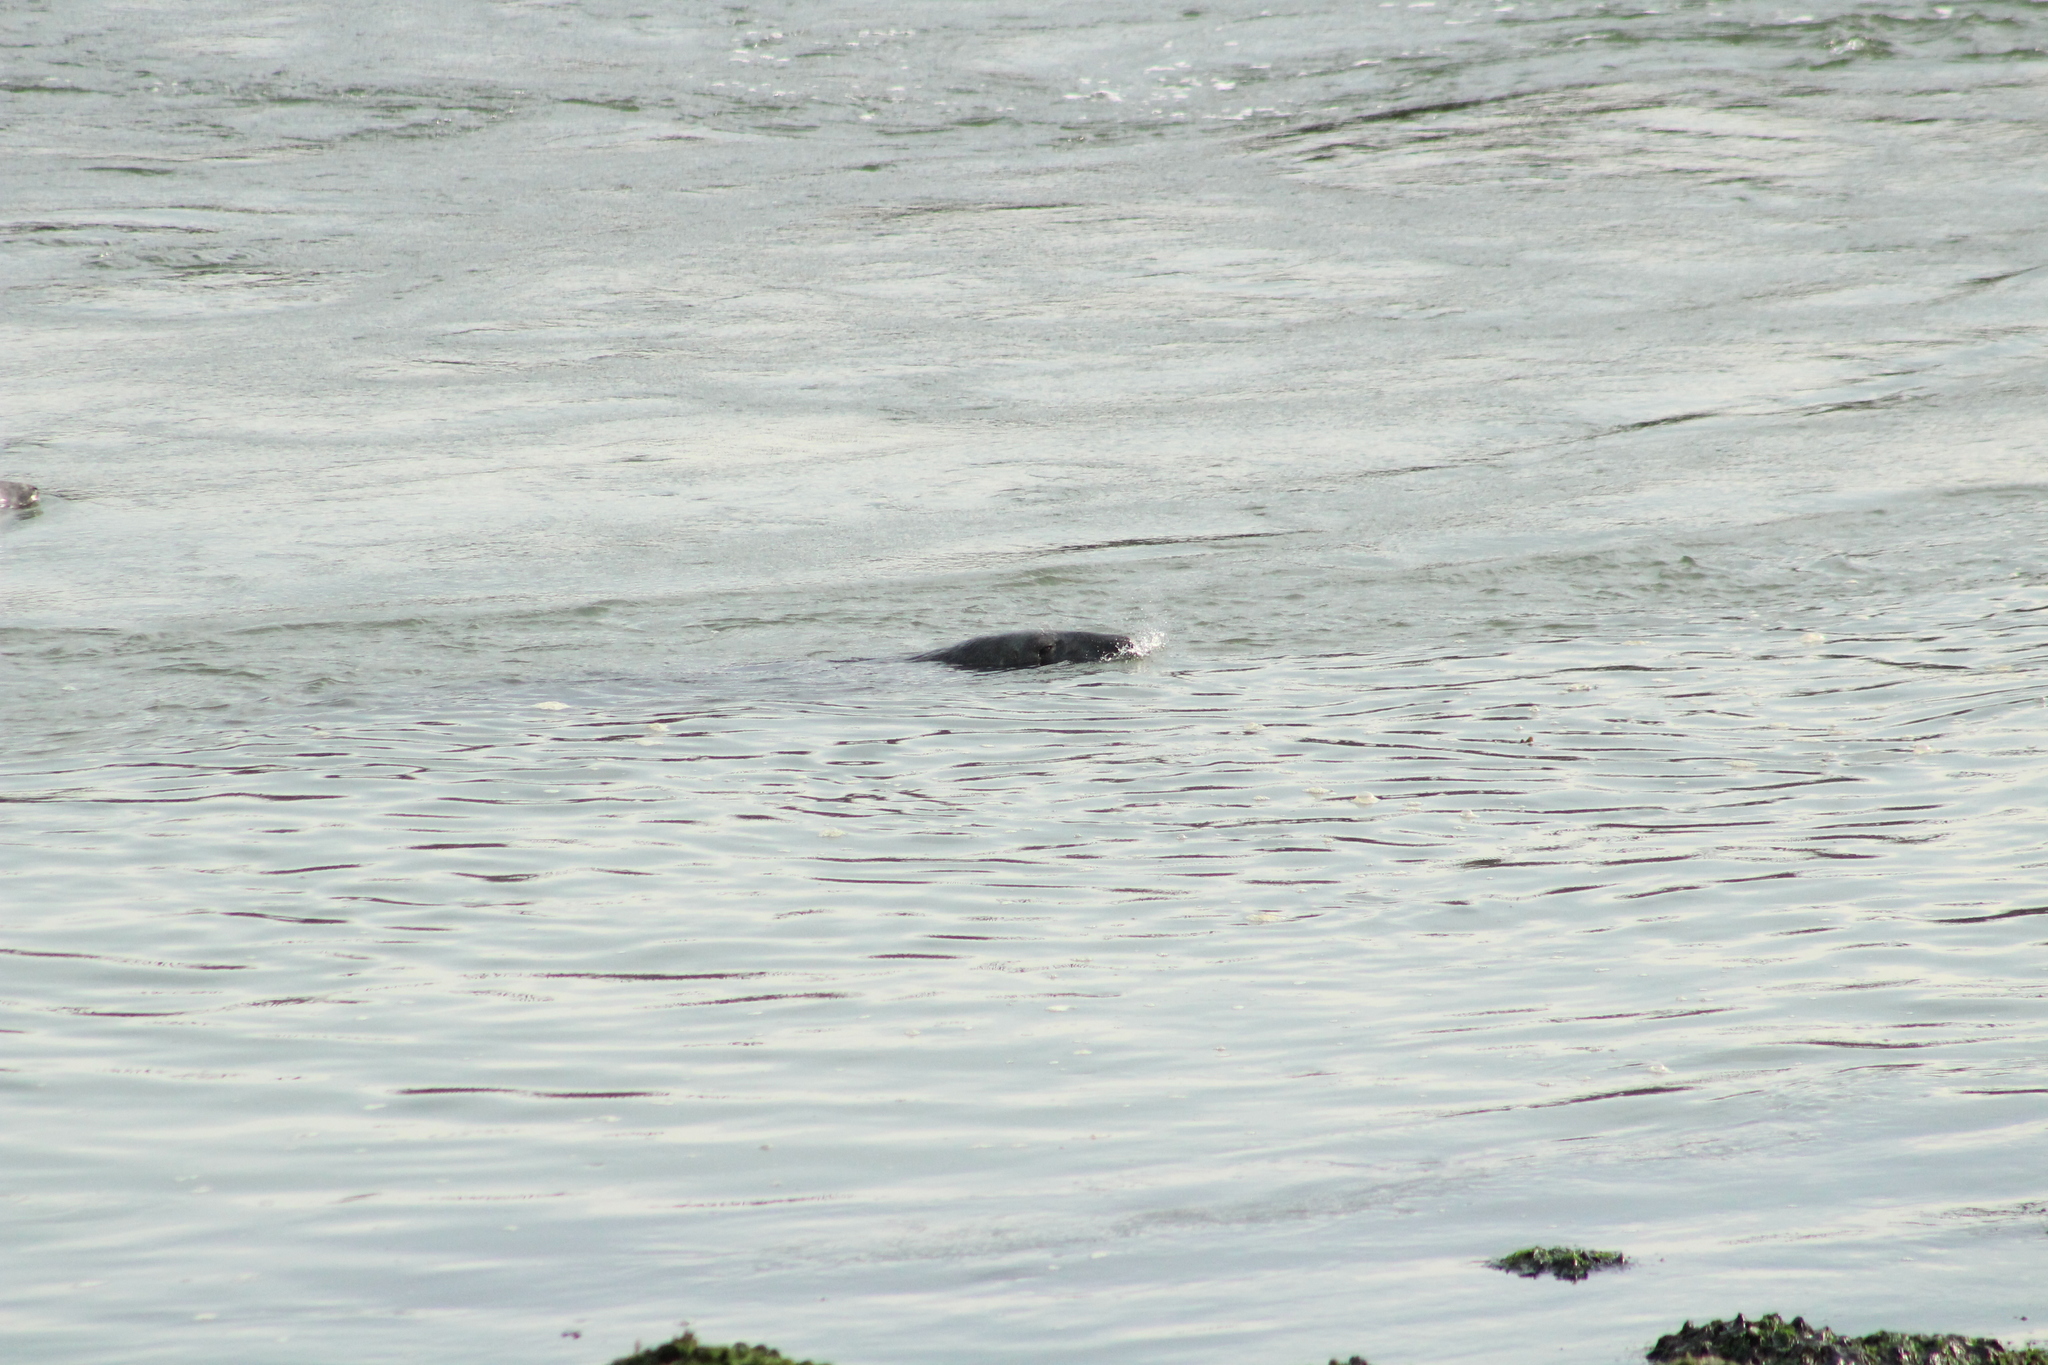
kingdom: Animalia
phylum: Chordata
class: Mammalia
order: Carnivora
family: Phocidae
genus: Halichoerus
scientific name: Halichoerus grypus
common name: Grey seal
